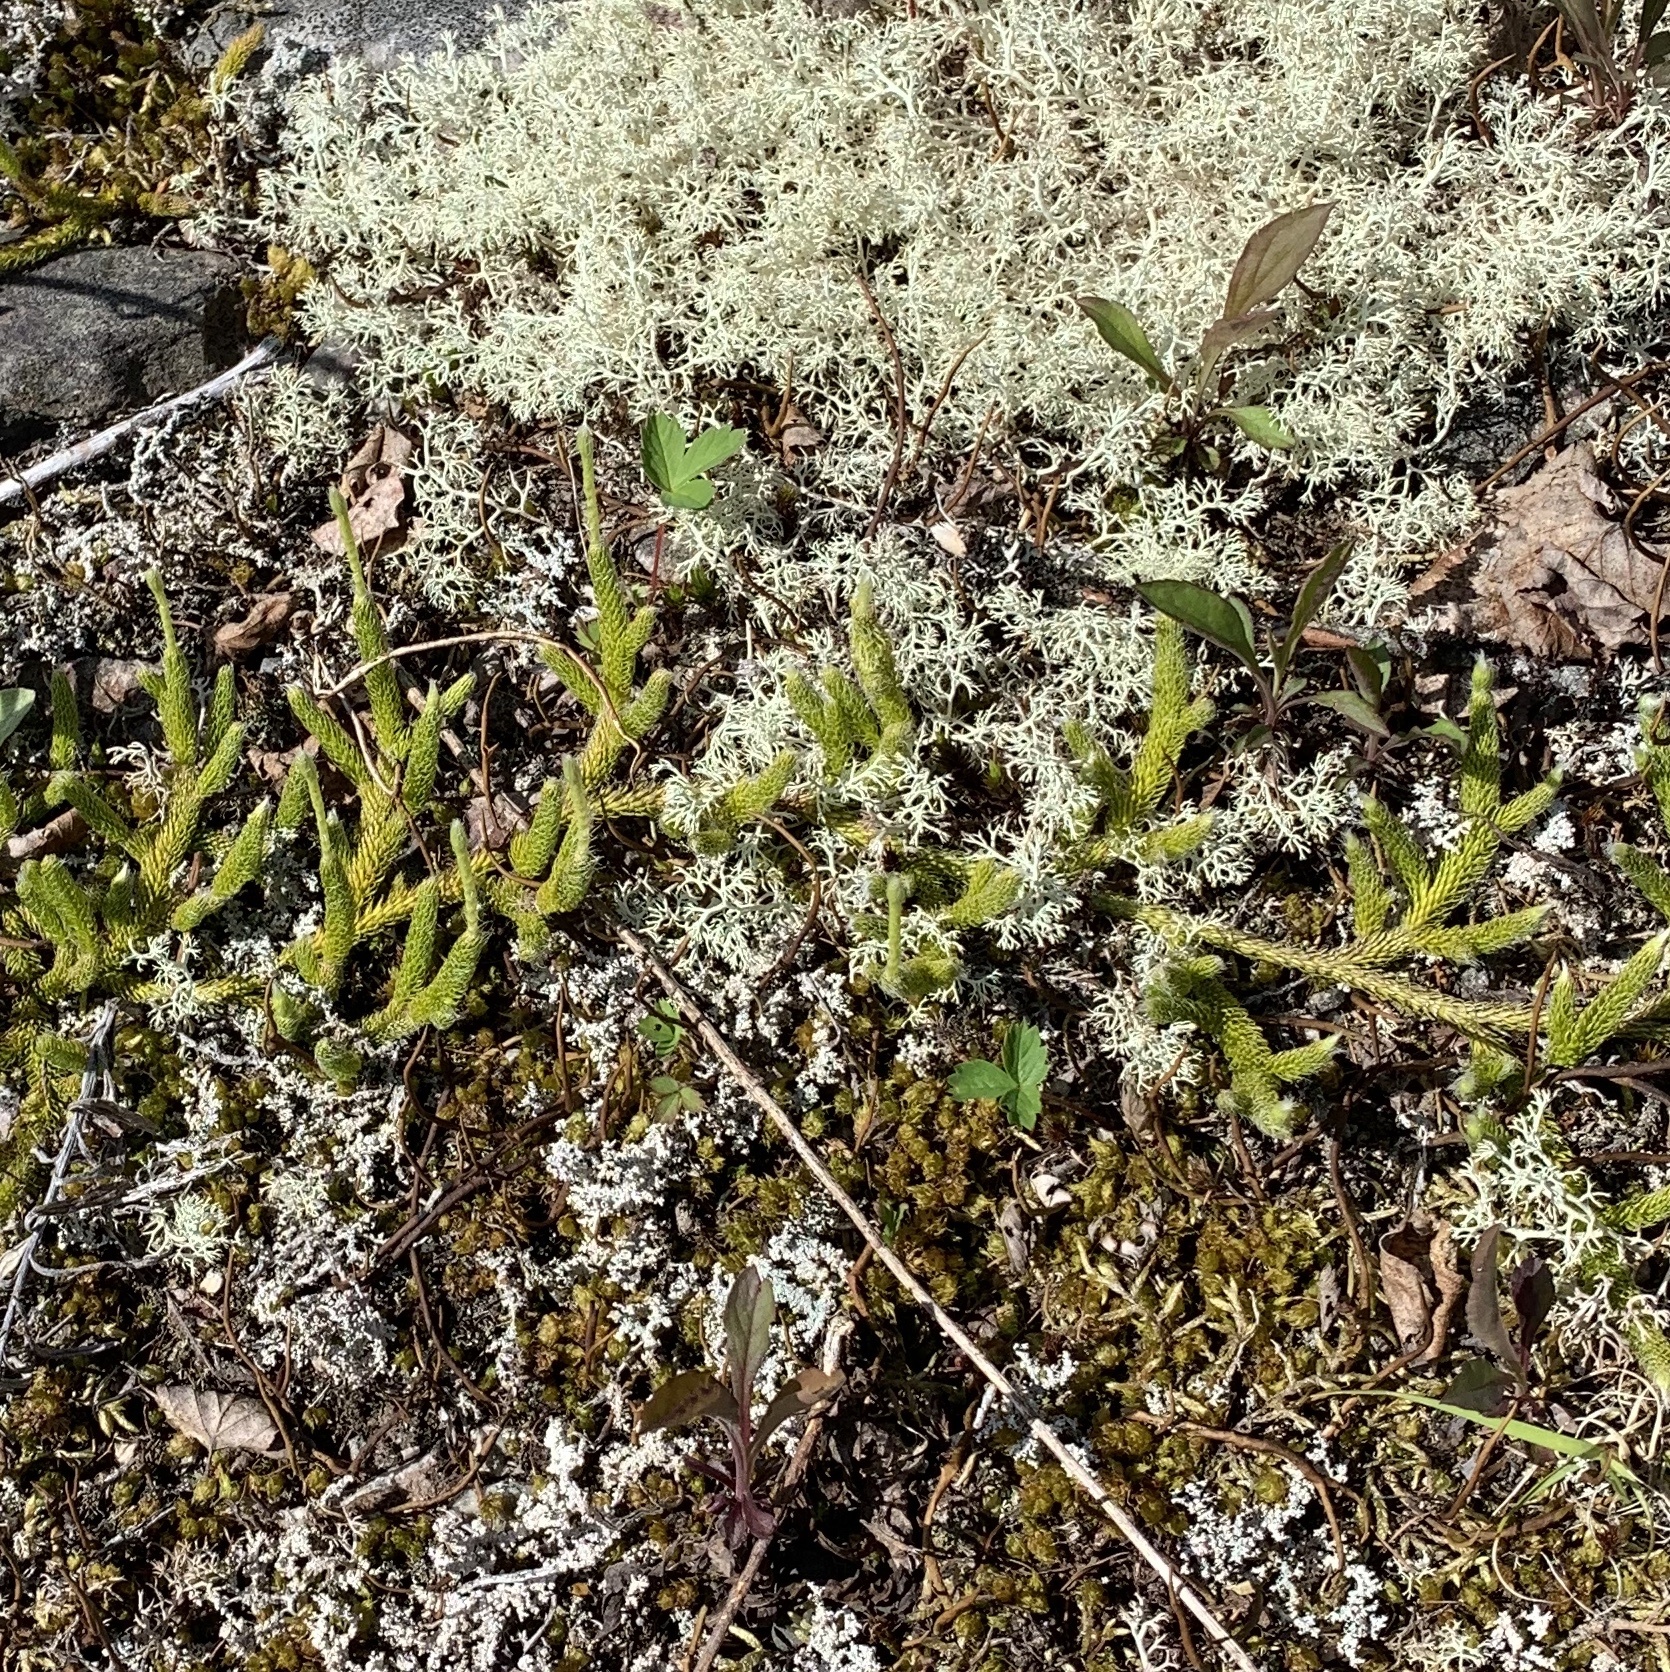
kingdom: Plantae
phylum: Tracheophyta
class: Lycopodiopsida
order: Lycopodiales
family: Lycopodiaceae
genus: Lycopodium
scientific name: Lycopodium lagopus
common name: One-cone clubmoss
